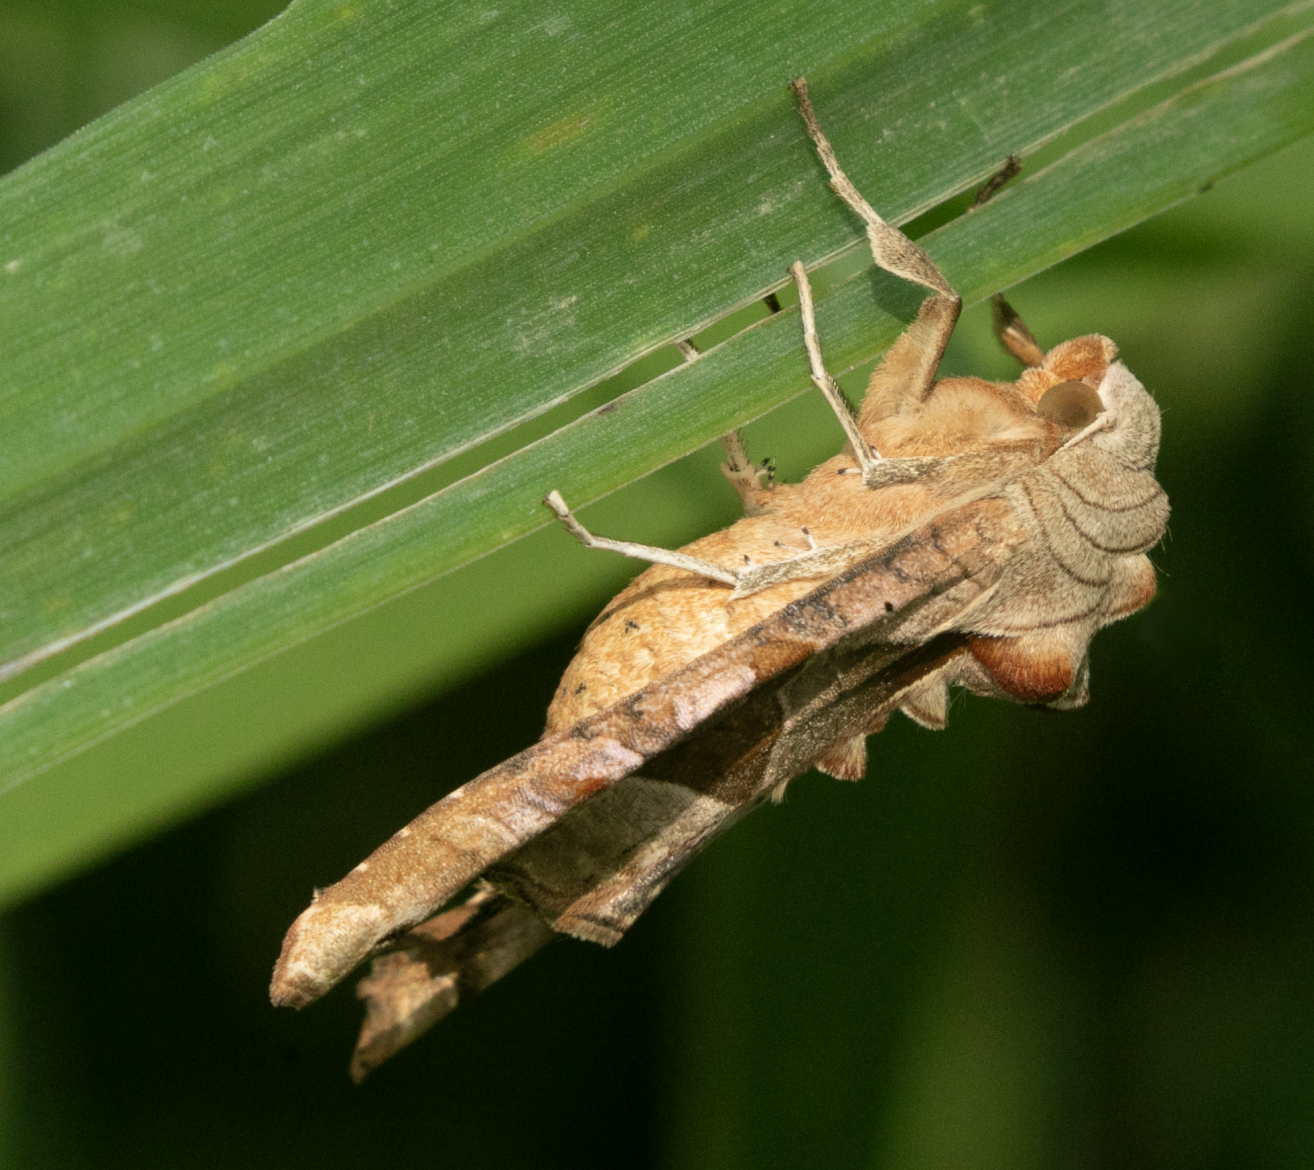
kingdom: Animalia
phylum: Arthropoda
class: Insecta
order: Lepidoptera
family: Noctuidae
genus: Phlogophora
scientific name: Phlogophora meticulosa
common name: Angle shades
